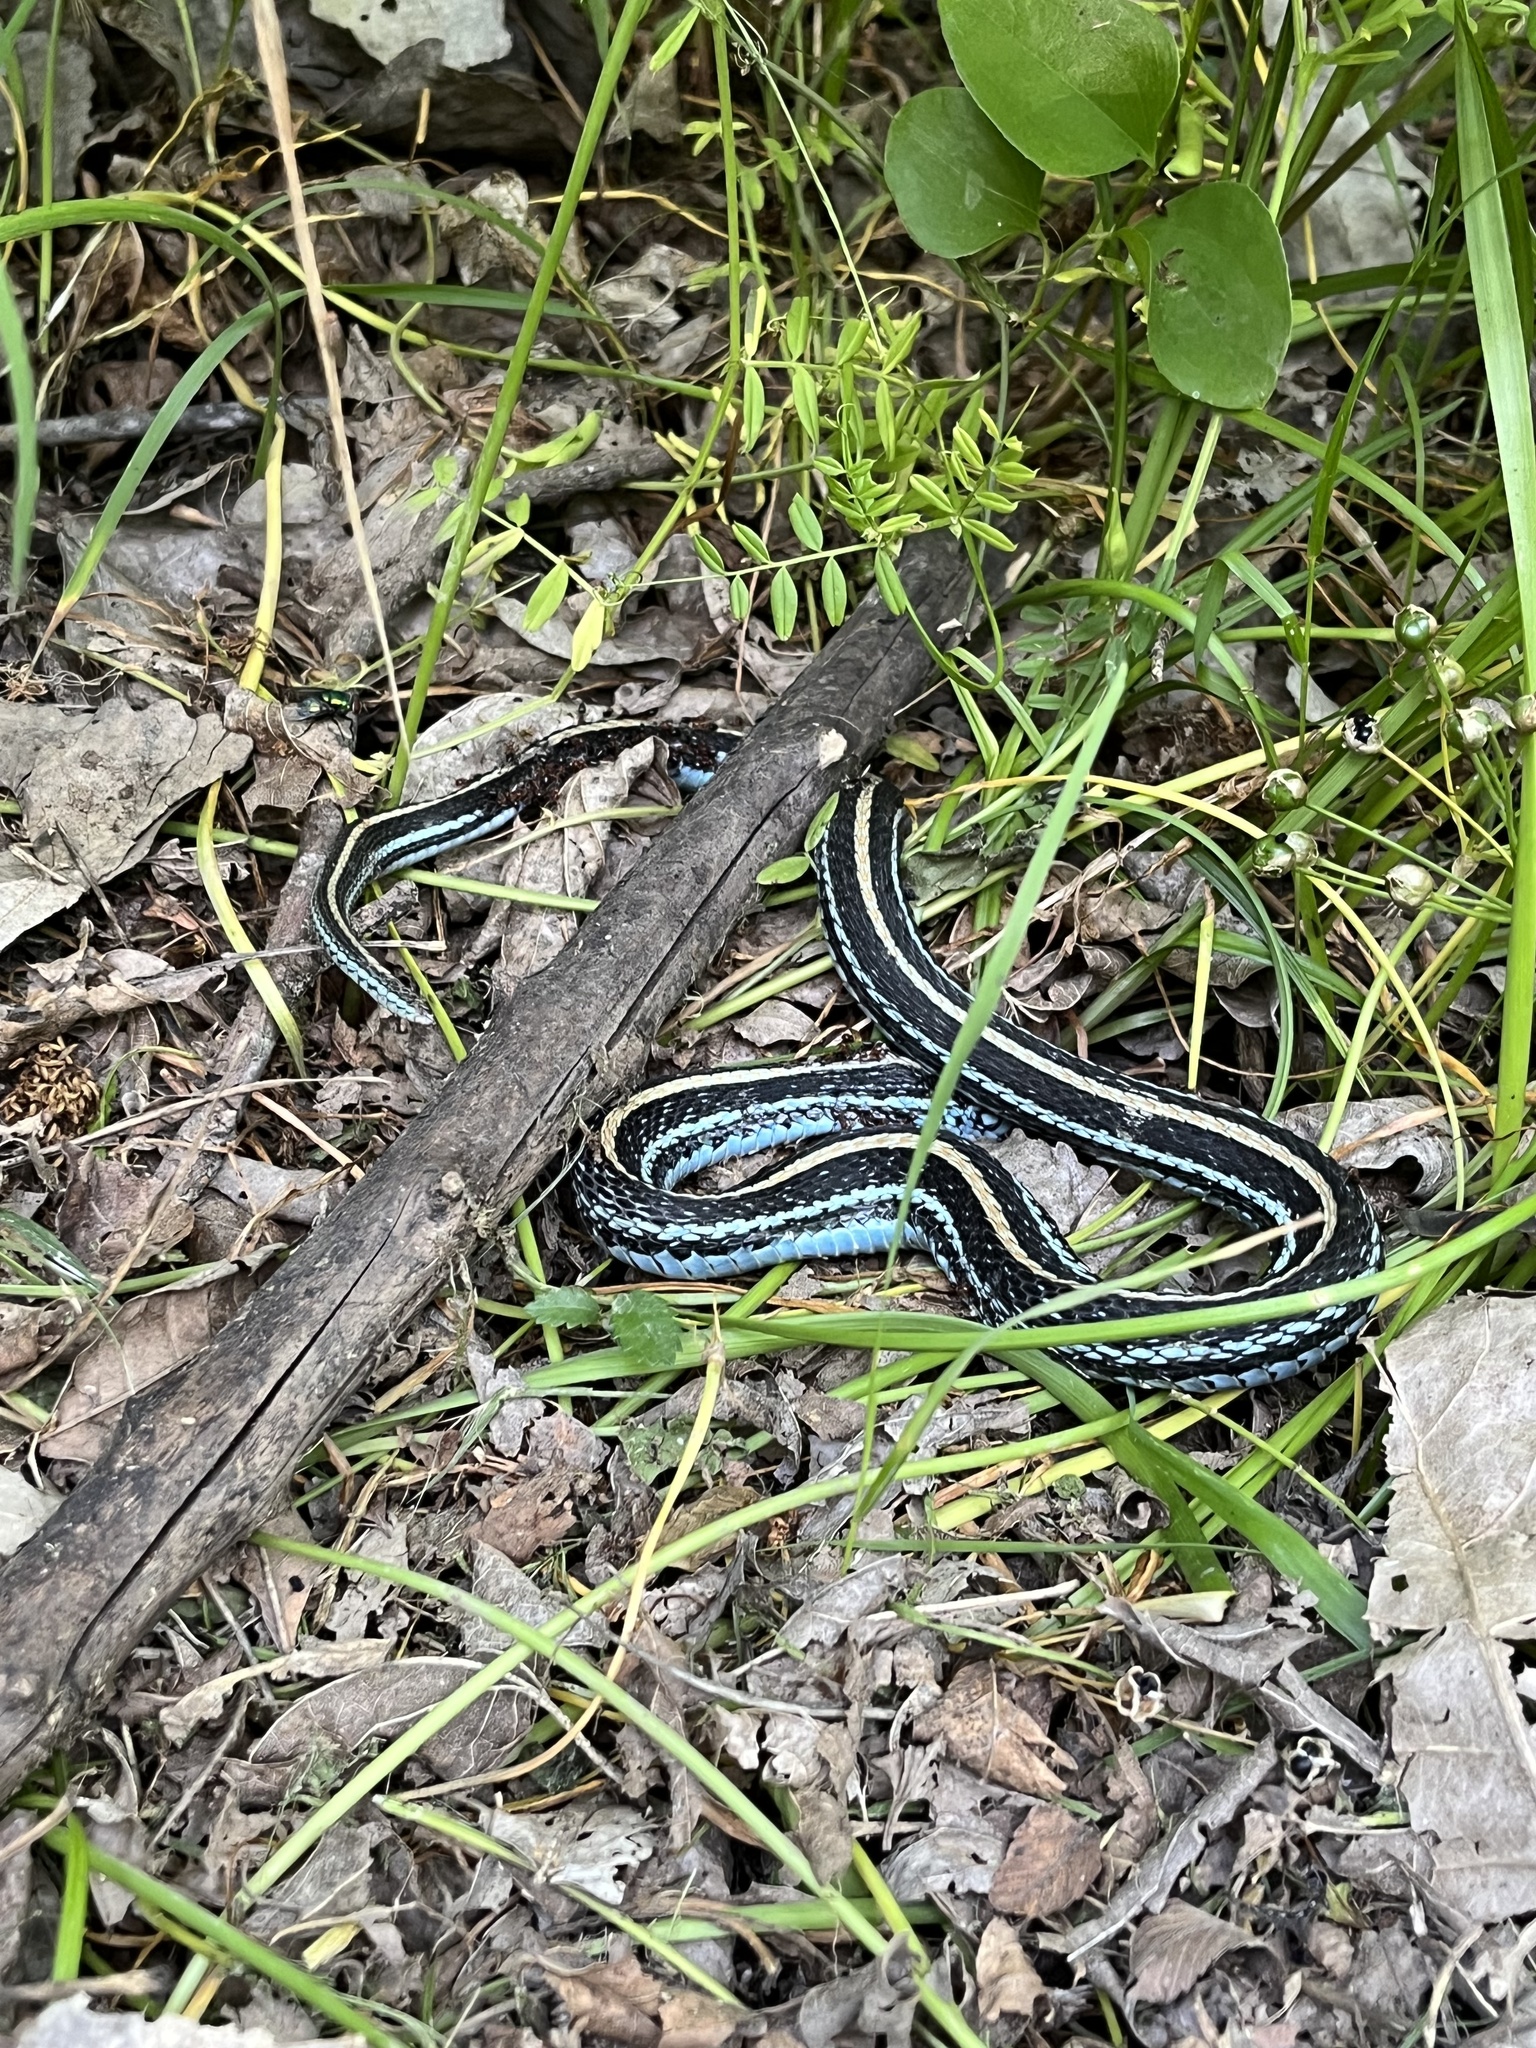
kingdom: Animalia
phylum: Chordata
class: Squamata
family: Colubridae
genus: Thamnophis
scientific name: Thamnophis sirtalis
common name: Common garter snake
